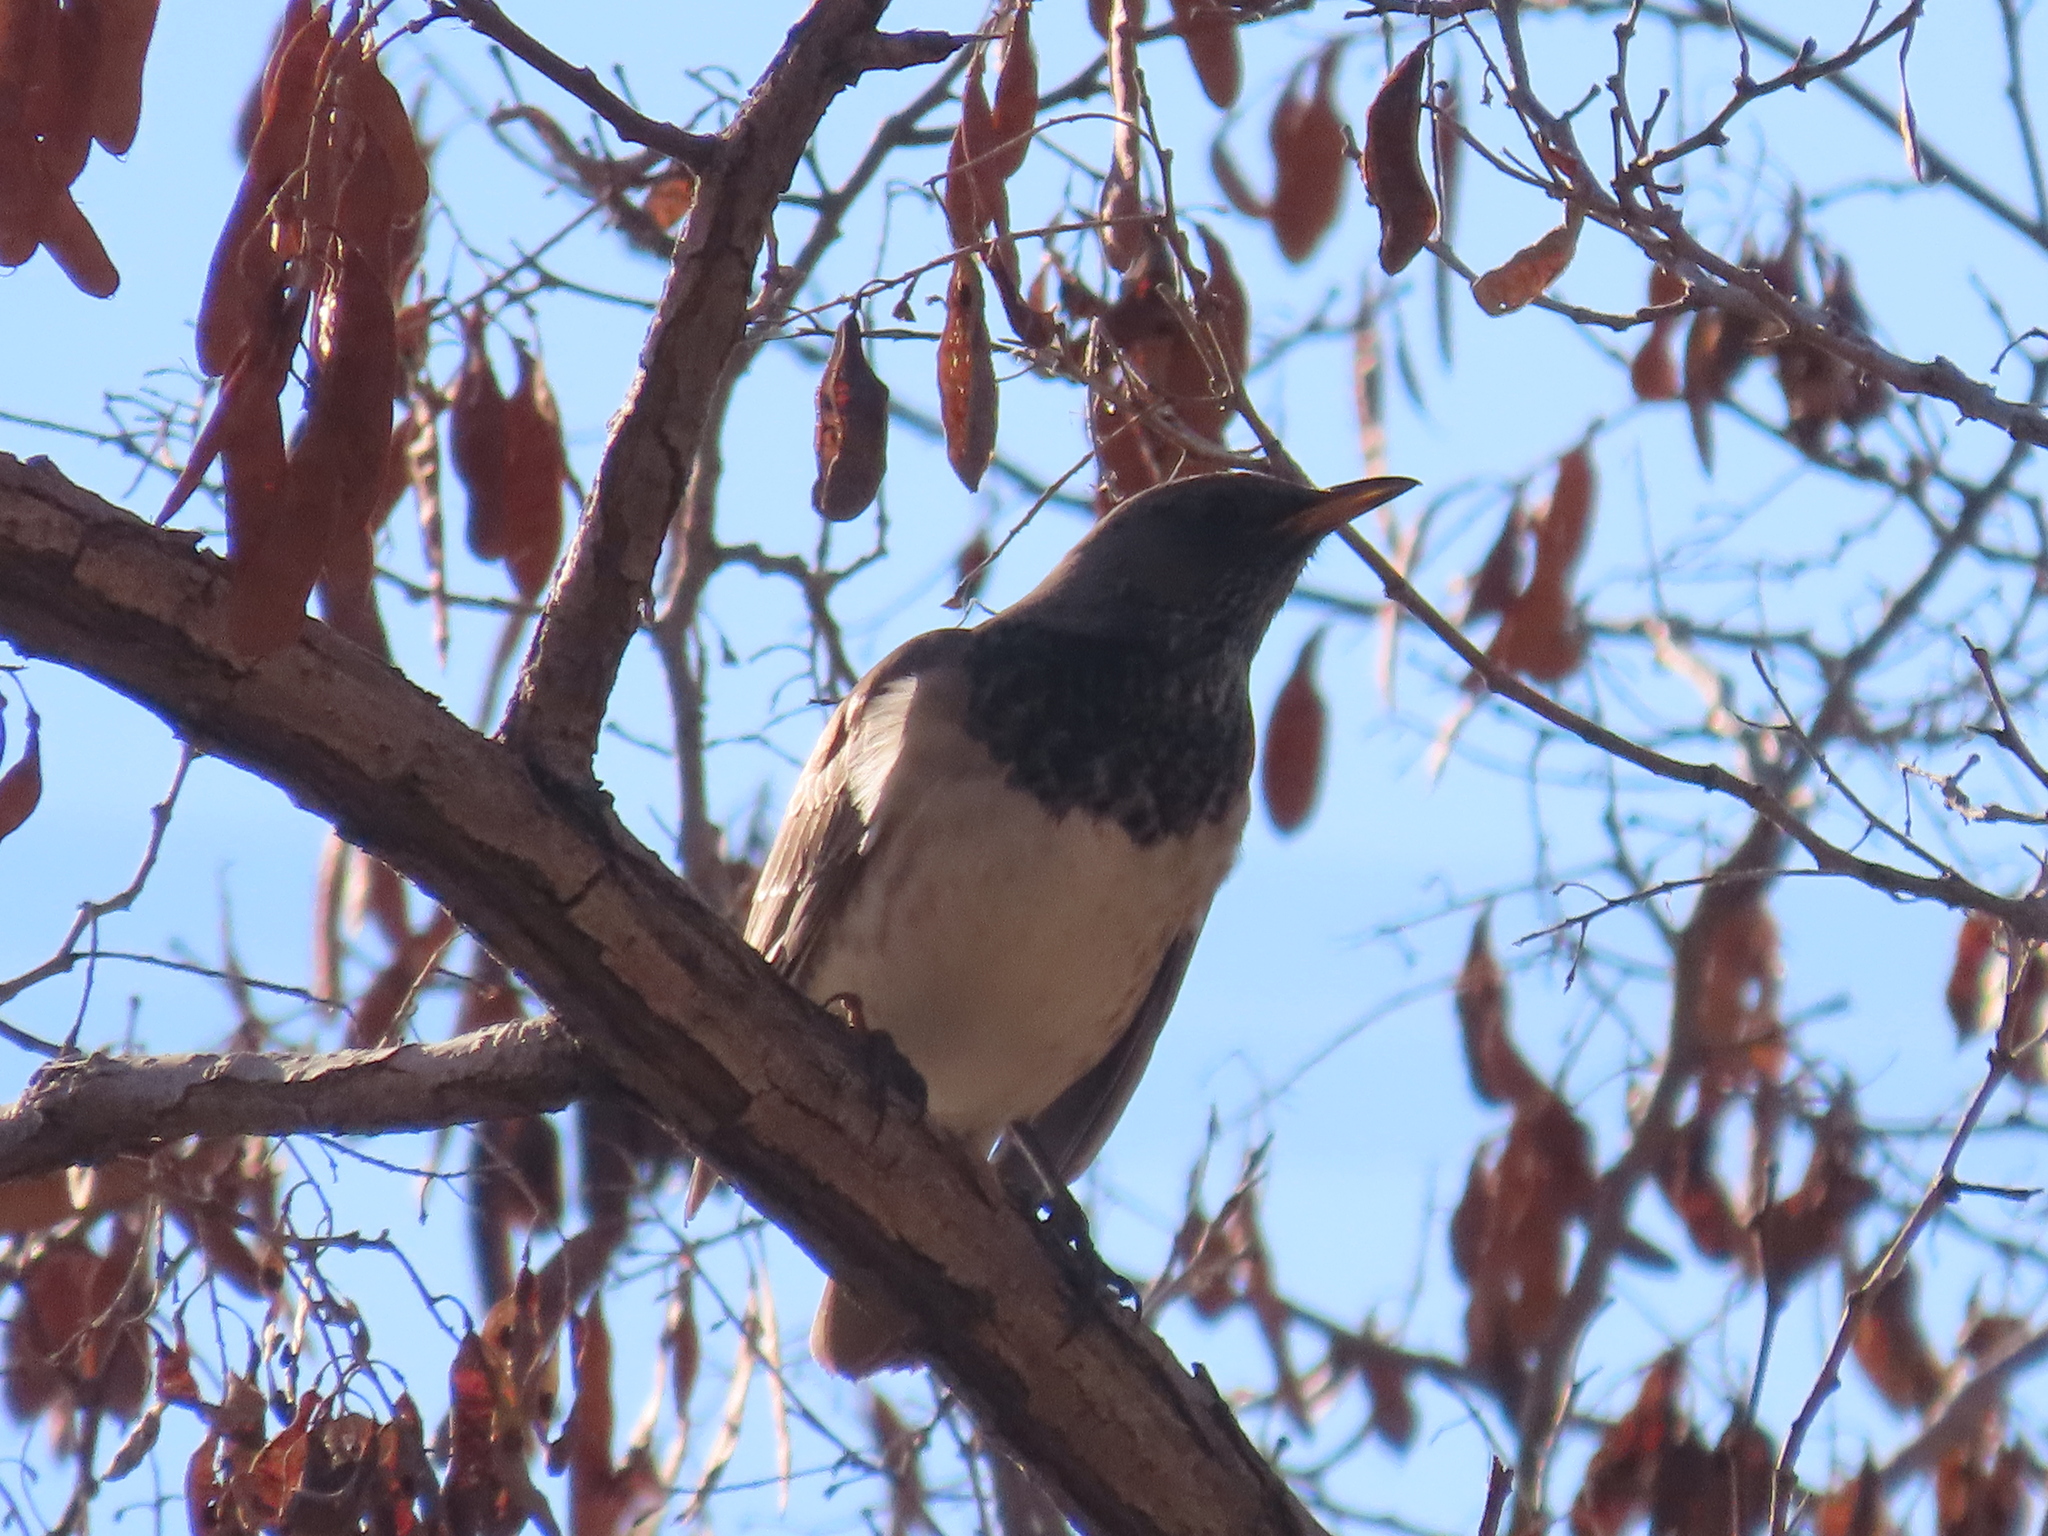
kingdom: Animalia
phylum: Chordata
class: Aves
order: Passeriformes
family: Turdidae
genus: Turdus
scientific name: Turdus atrogularis
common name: Black-throated thrush
